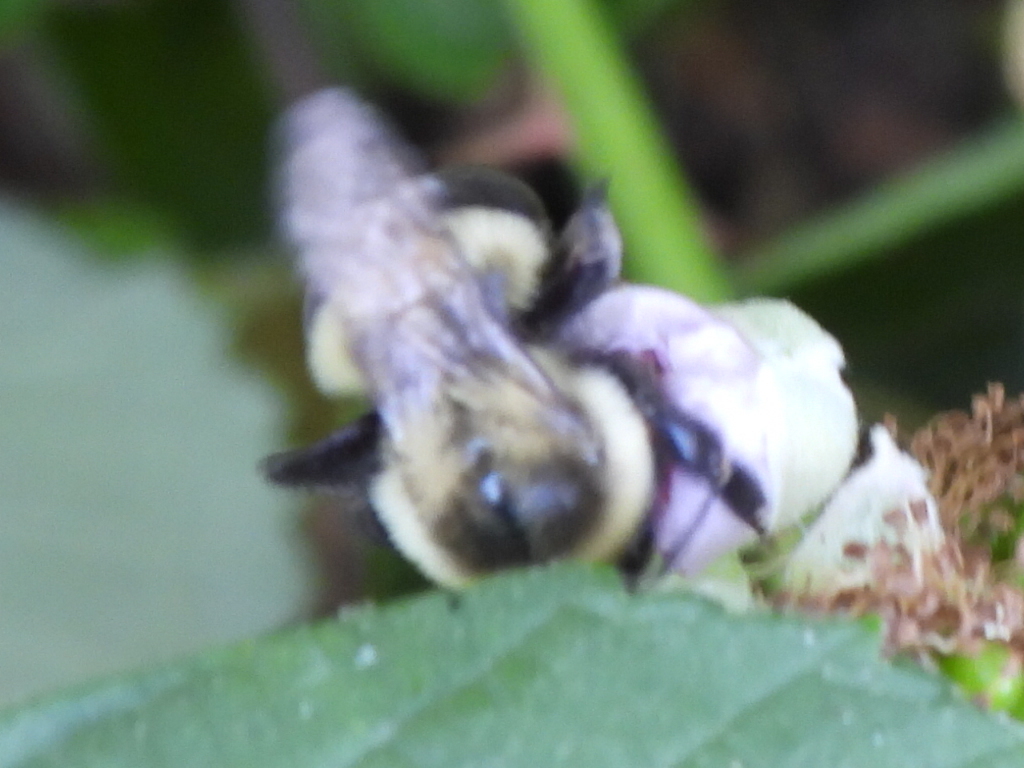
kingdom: Animalia
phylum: Arthropoda
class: Insecta
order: Hymenoptera
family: Apidae
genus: Bombus
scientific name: Bombus impatiens
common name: Common eastern bumble bee
